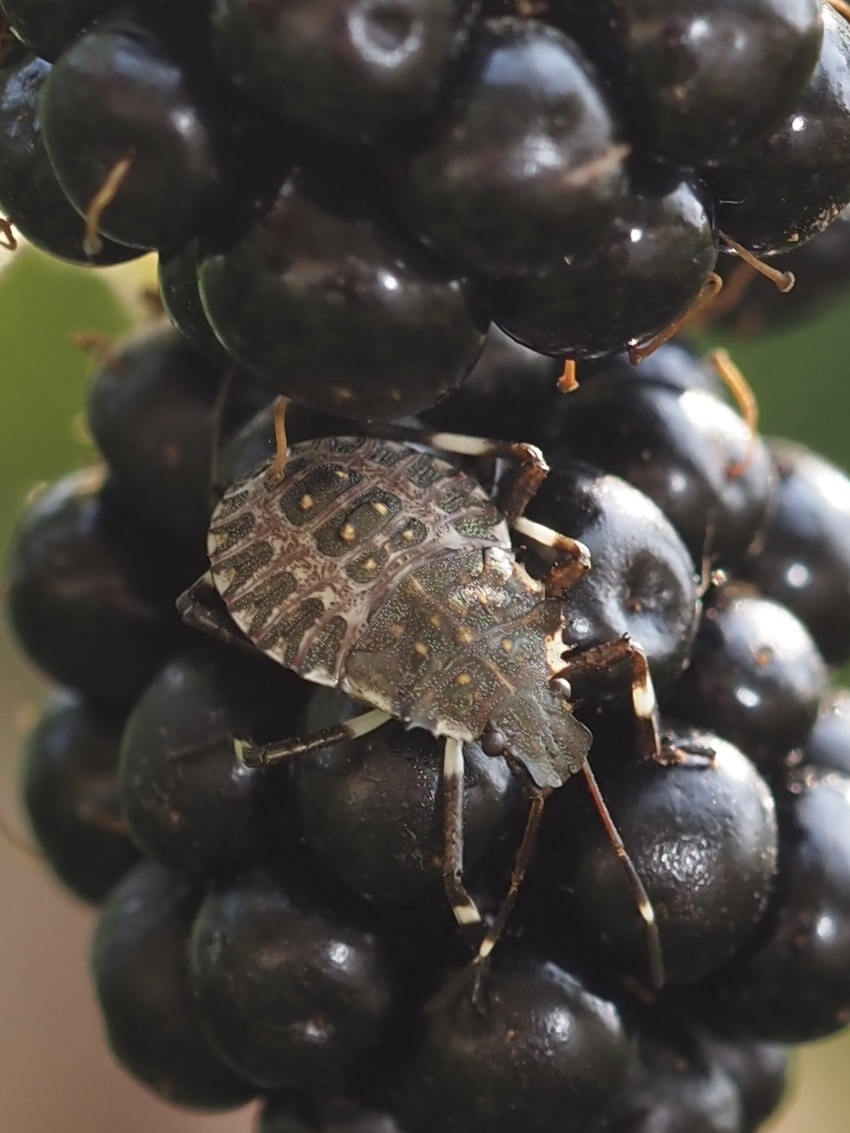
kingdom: Animalia
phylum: Arthropoda
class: Insecta
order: Hemiptera
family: Pentatomidae
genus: Halyomorpha
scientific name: Halyomorpha halys
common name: Brown marmorated stink bug
